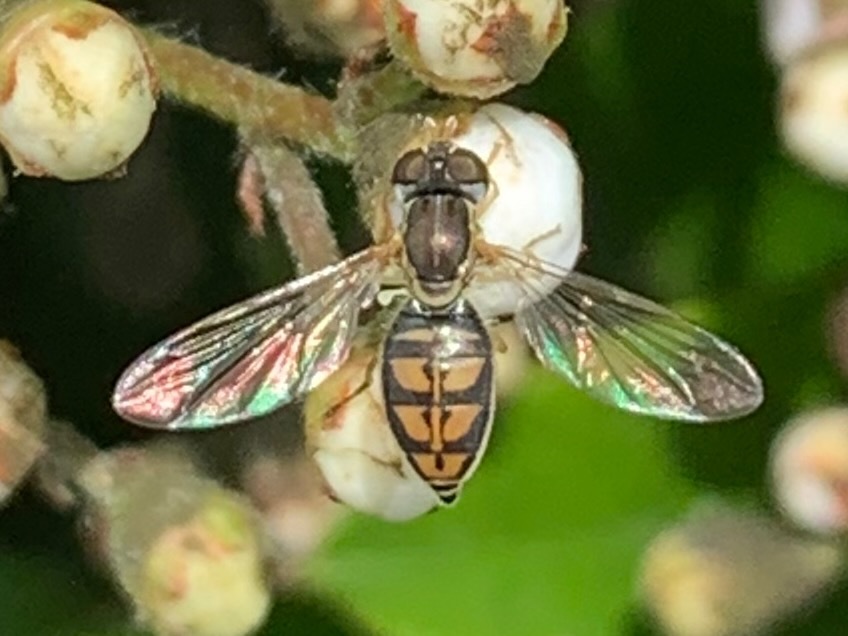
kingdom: Animalia
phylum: Arthropoda
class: Insecta
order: Diptera
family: Syrphidae
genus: Toxomerus
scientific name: Toxomerus marginatus
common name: Syrphid fly
